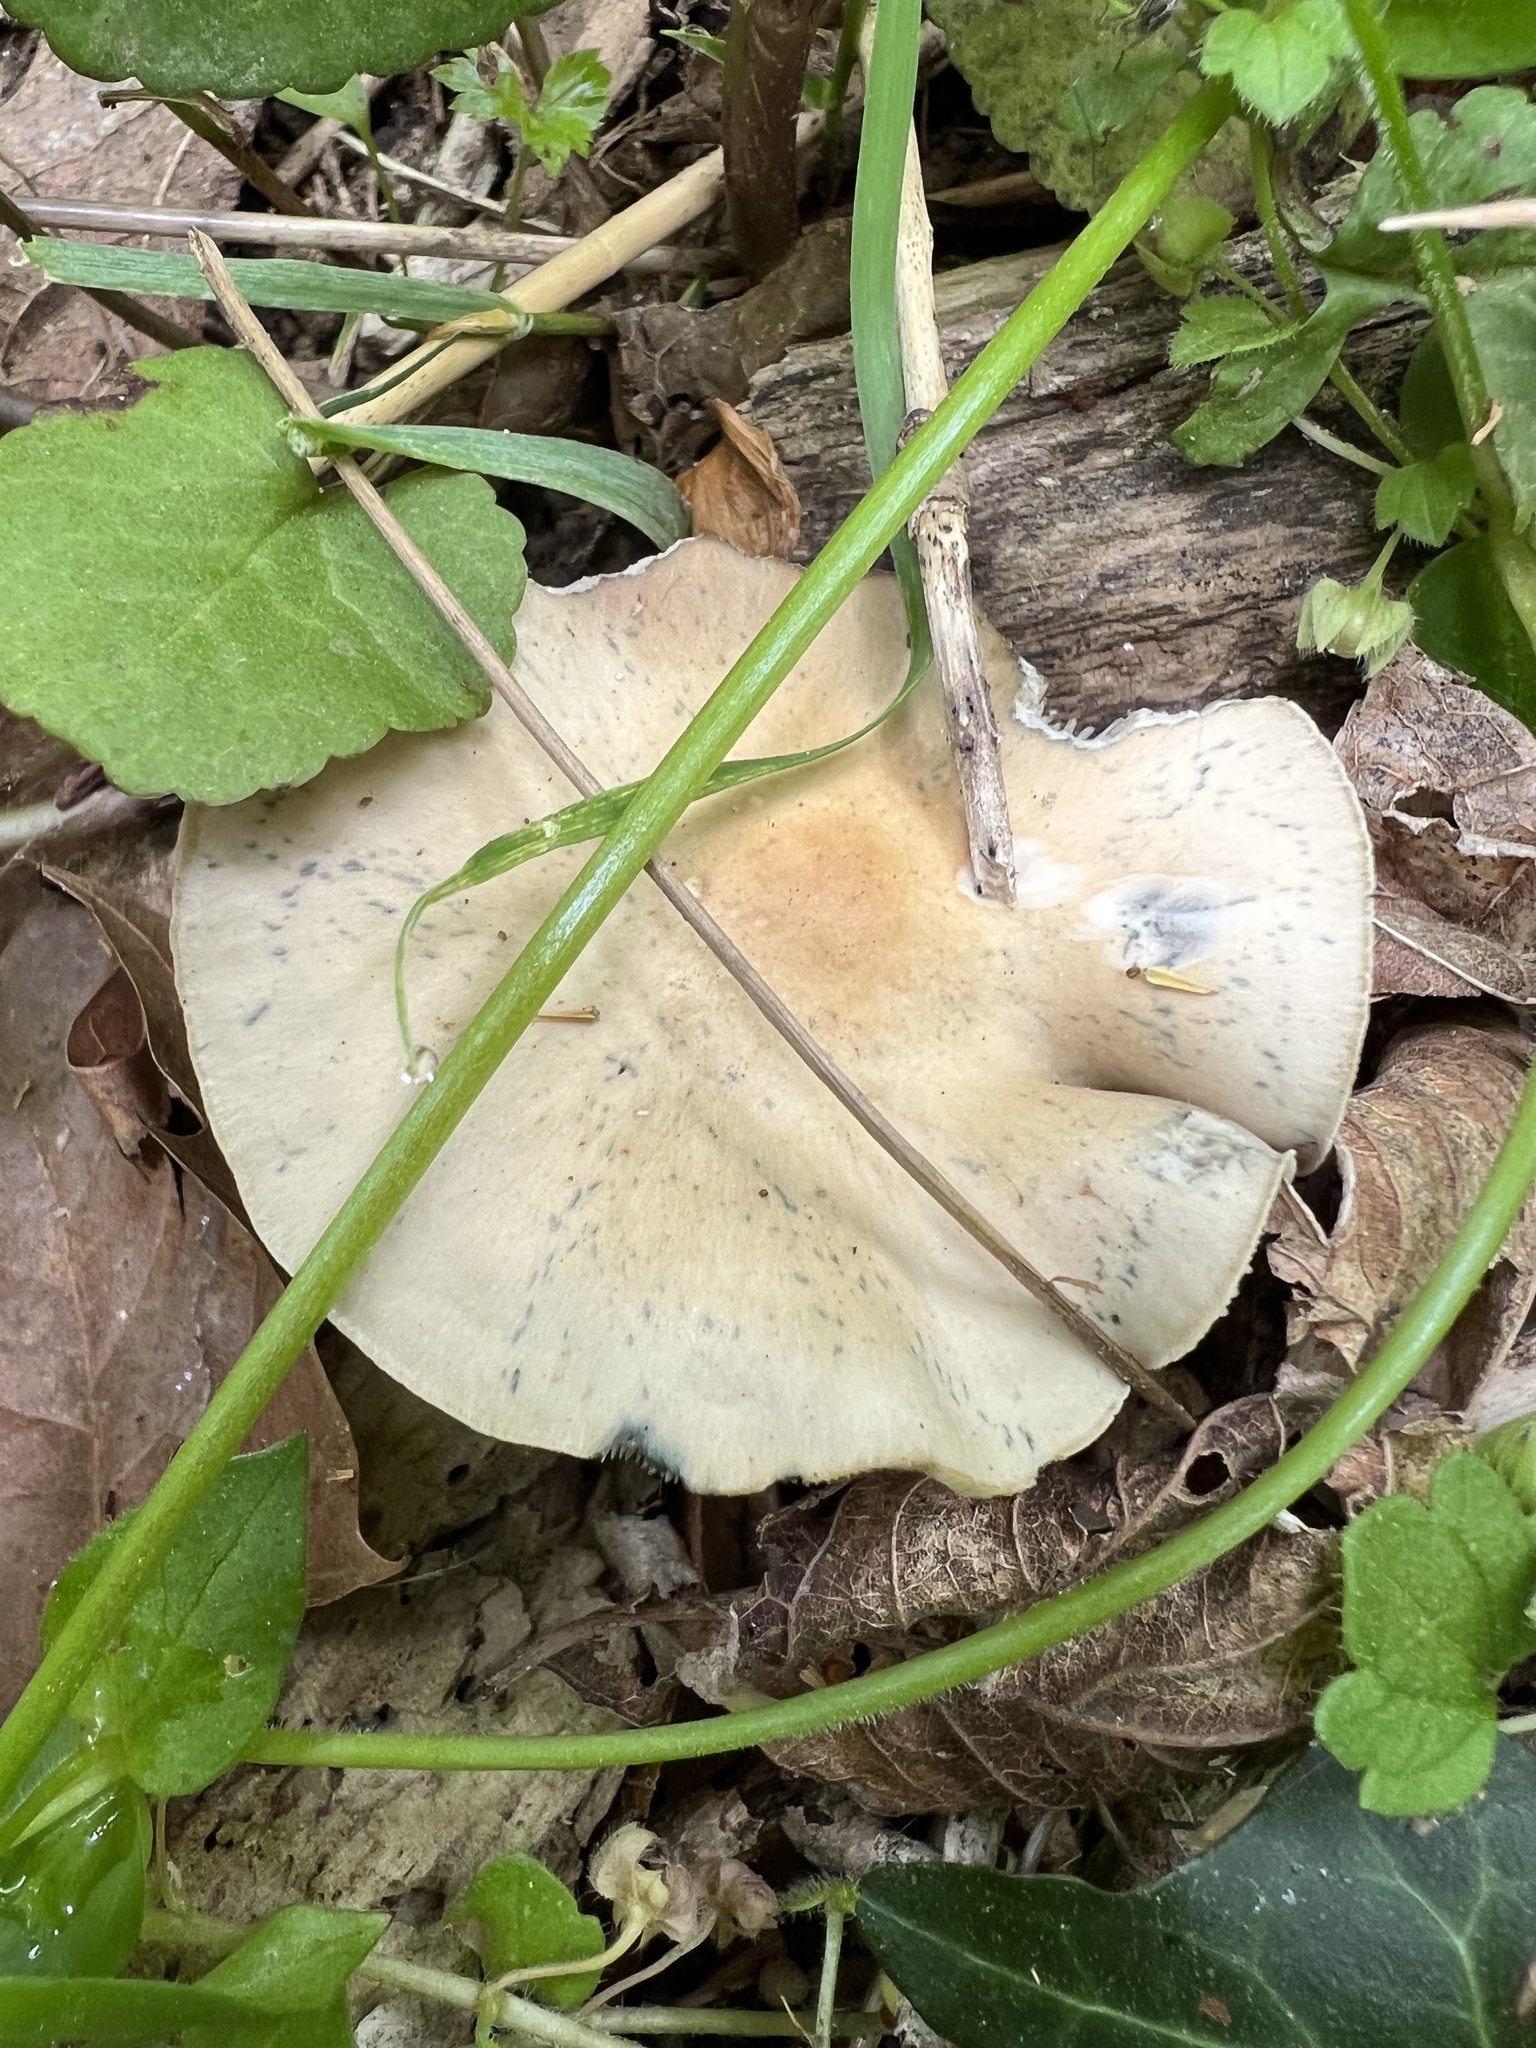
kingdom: Fungi
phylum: Basidiomycota
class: Agaricomycetes
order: Agaricales
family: Hymenogastraceae
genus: Psilocybe
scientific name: Psilocybe ovoideocystidiata
